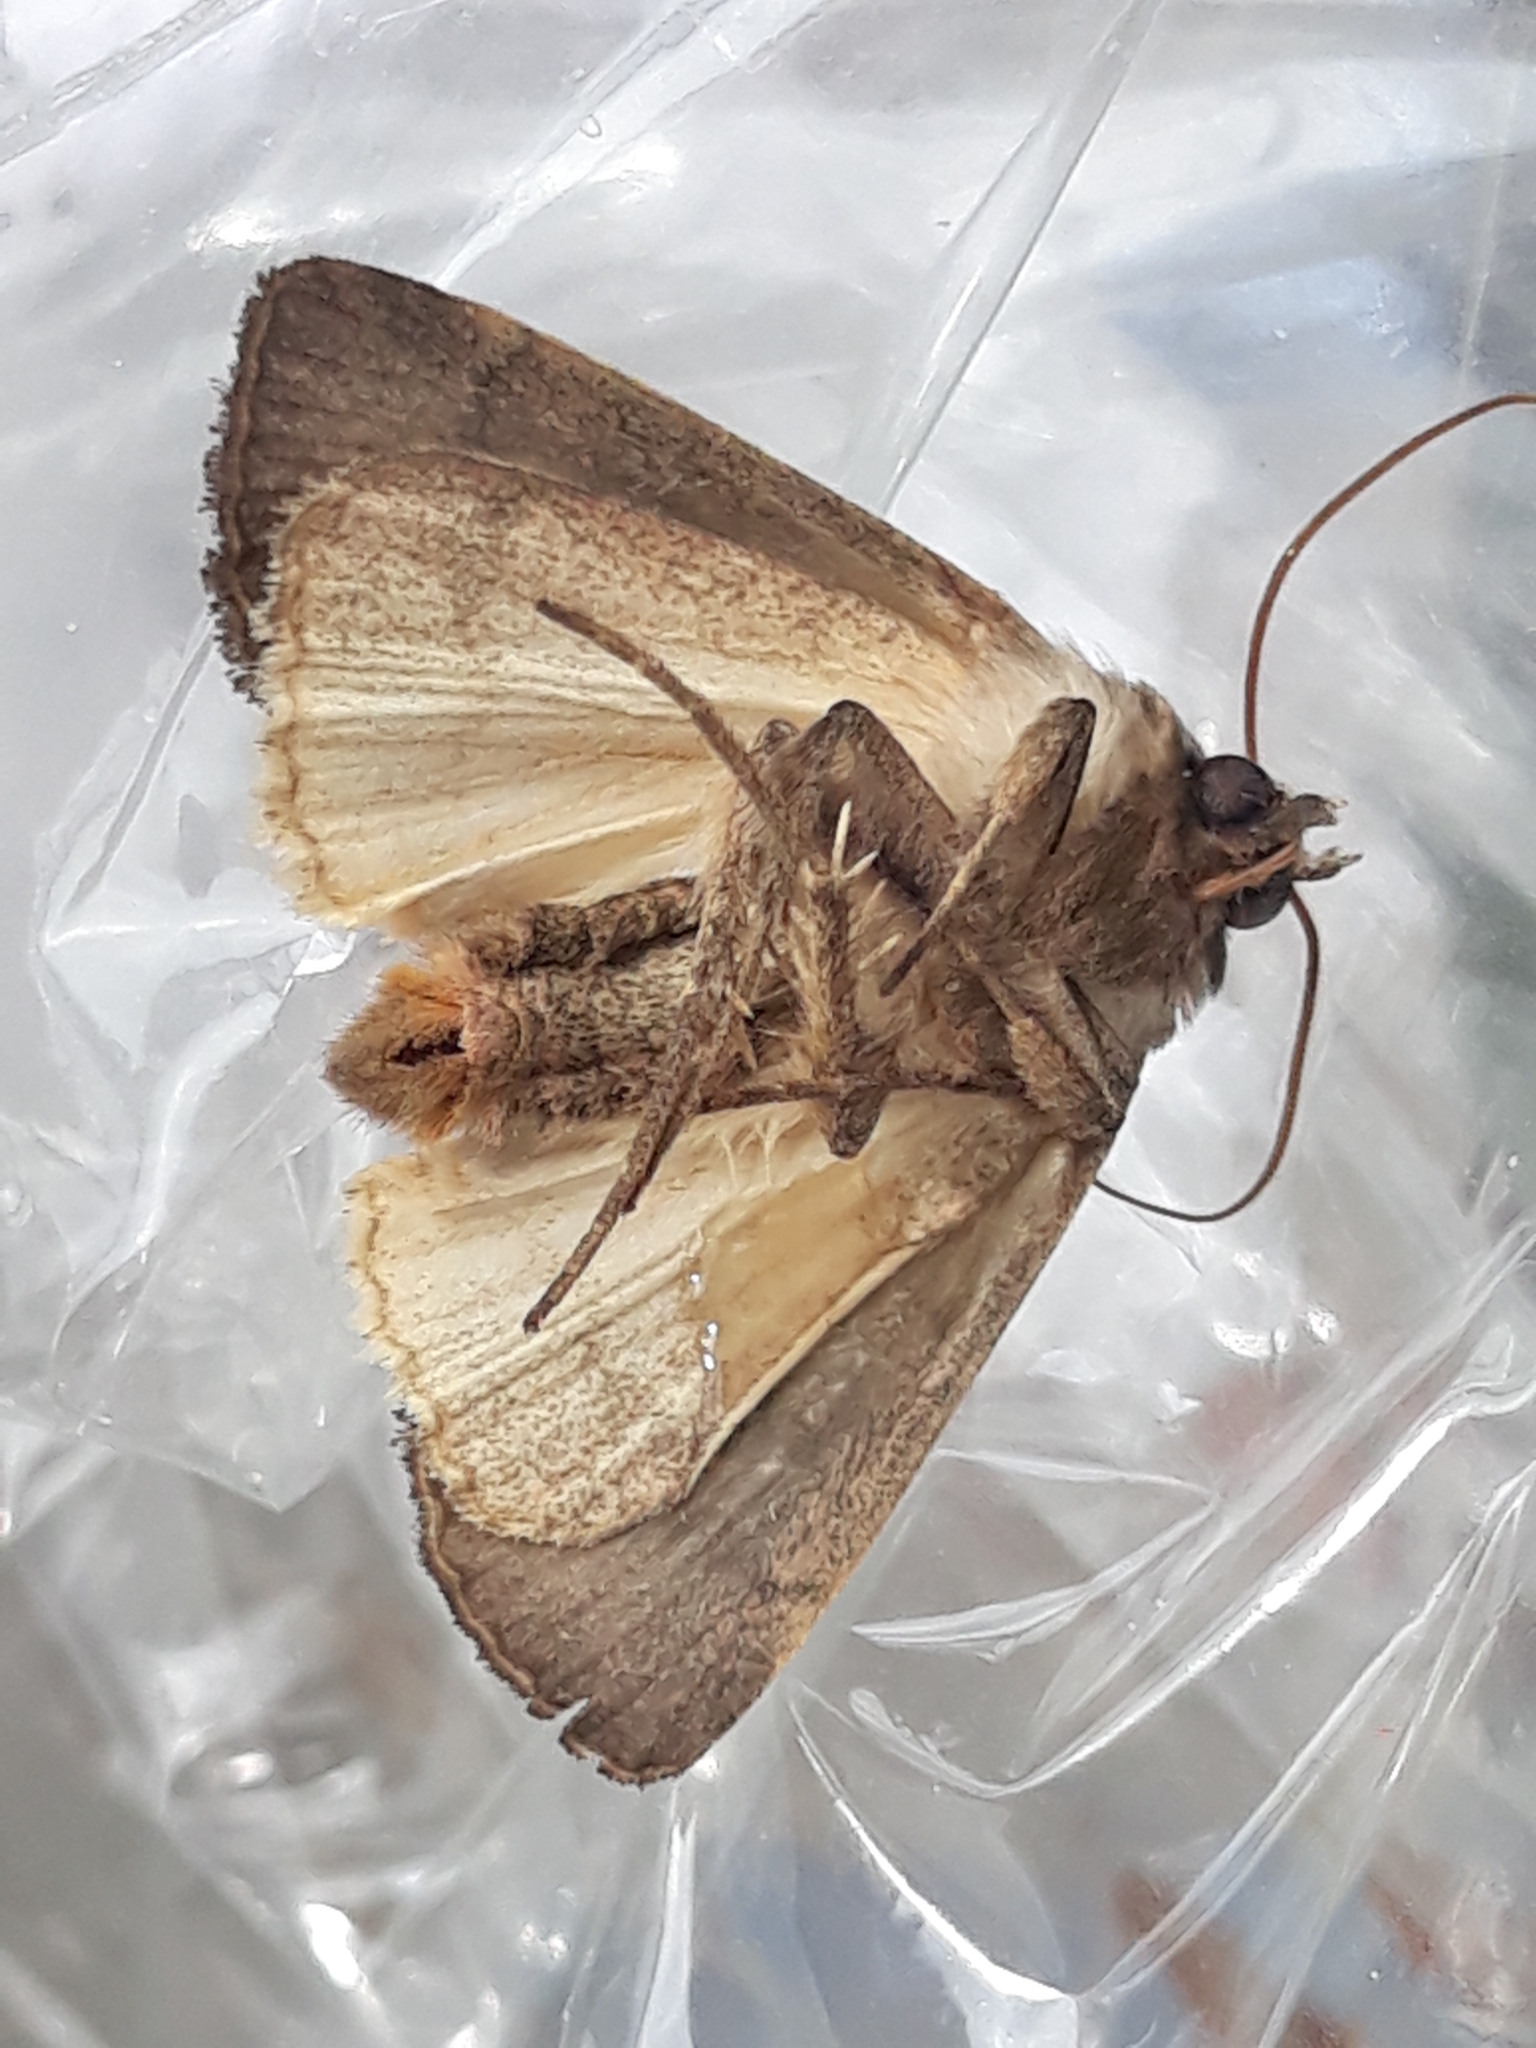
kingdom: Animalia
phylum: Arthropoda
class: Insecta
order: Lepidoptera
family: Noctuidae
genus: Xestia
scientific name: Xestia xanthographa
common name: Square-spot rustic
